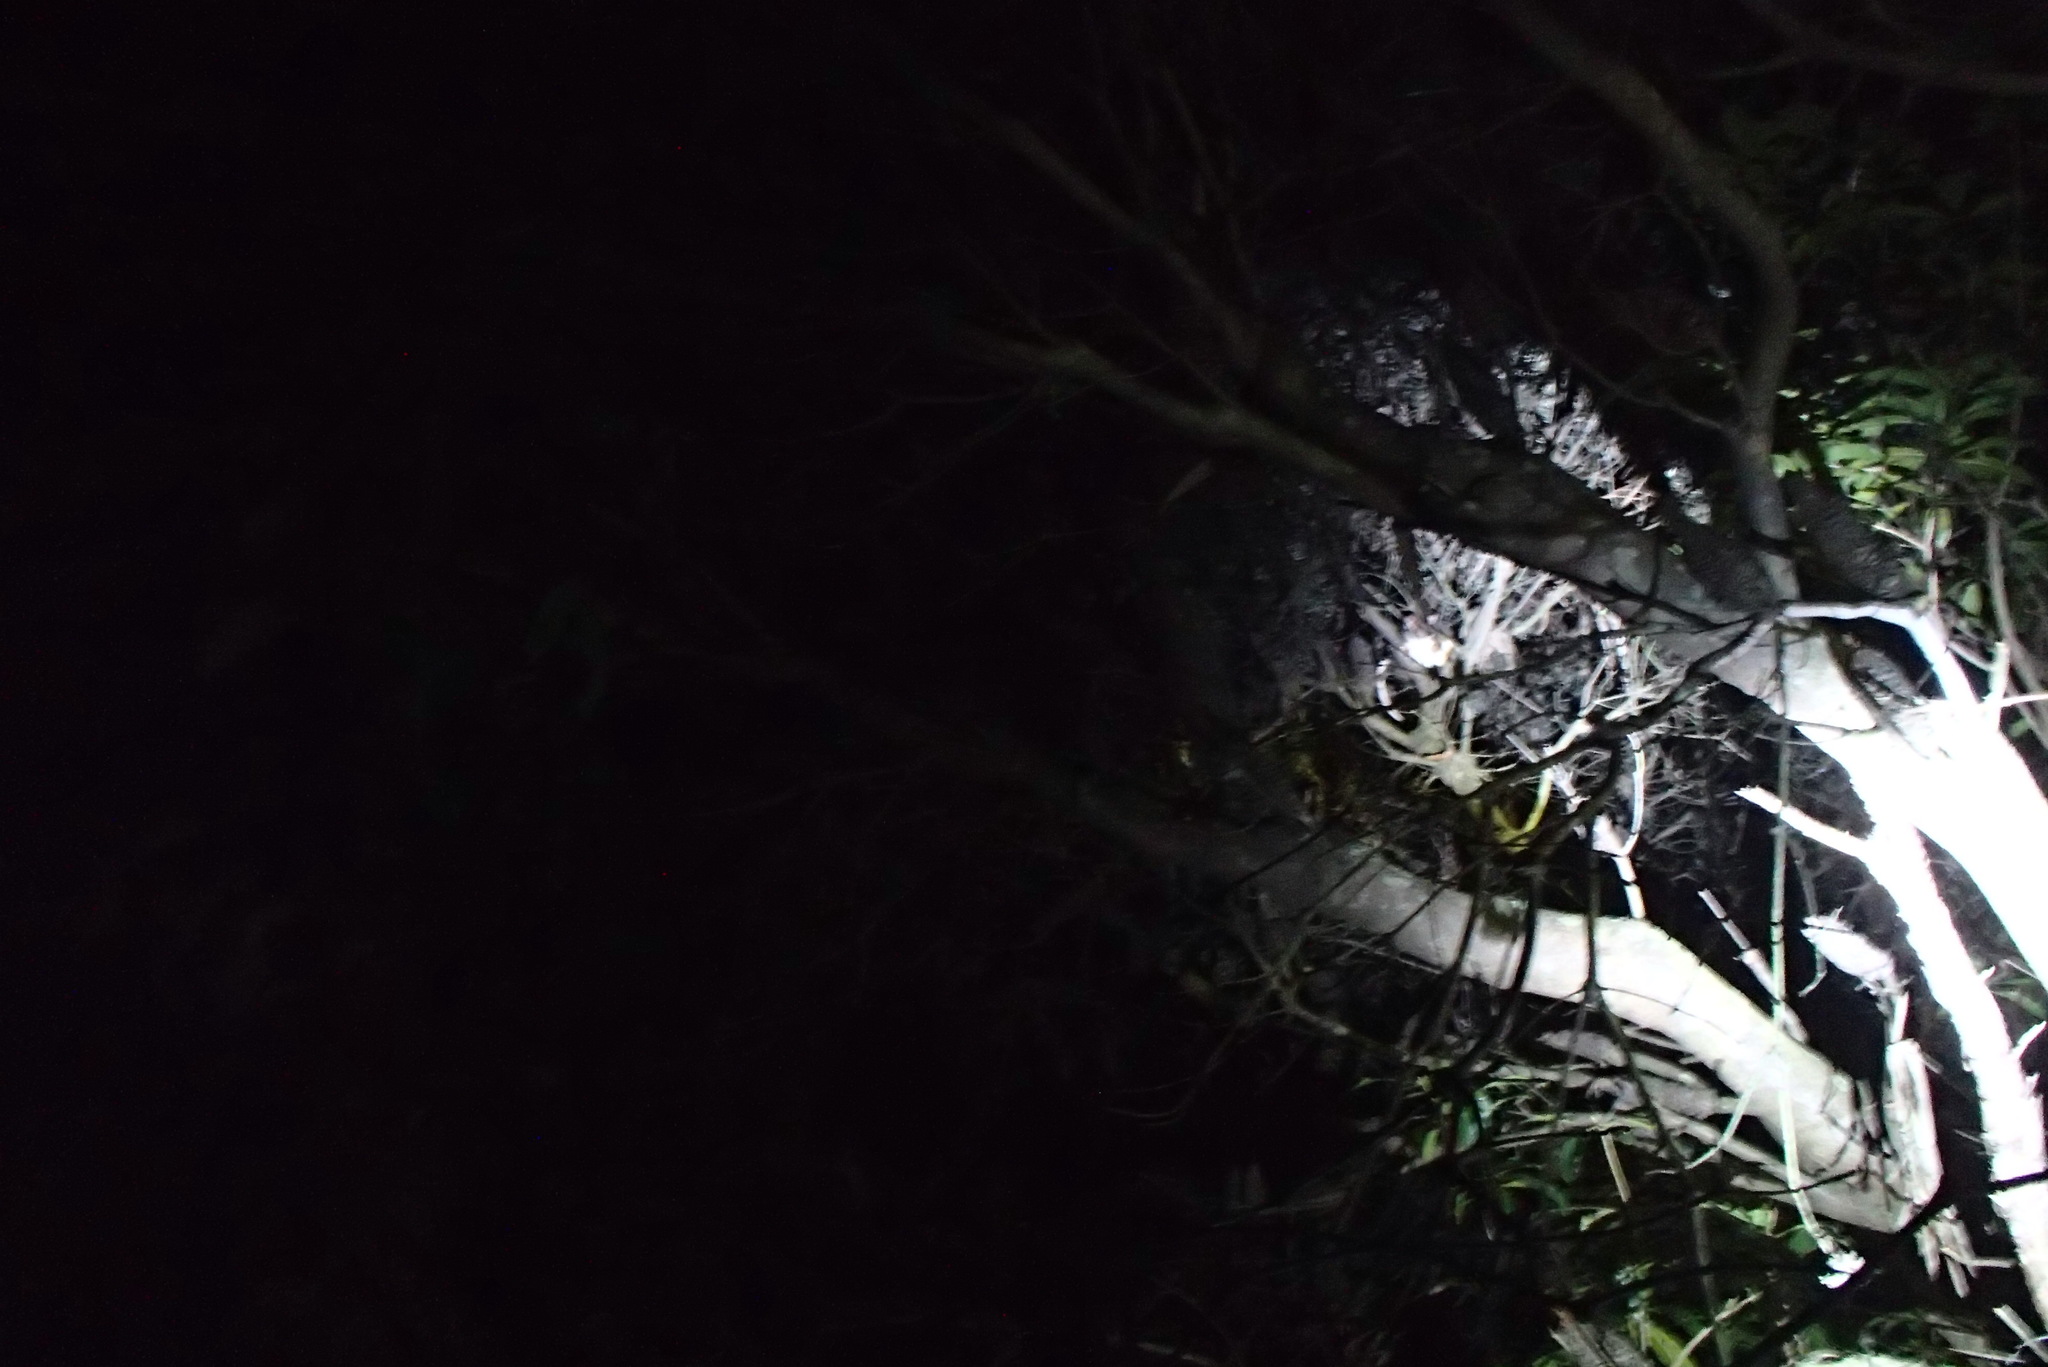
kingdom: Animalia
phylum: Chordata
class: Mammalia
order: Diprotodontia
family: Pseudocheiridae
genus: Pseudocheirus
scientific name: Pseudocheirus peregrinus
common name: Common ringtail possum
